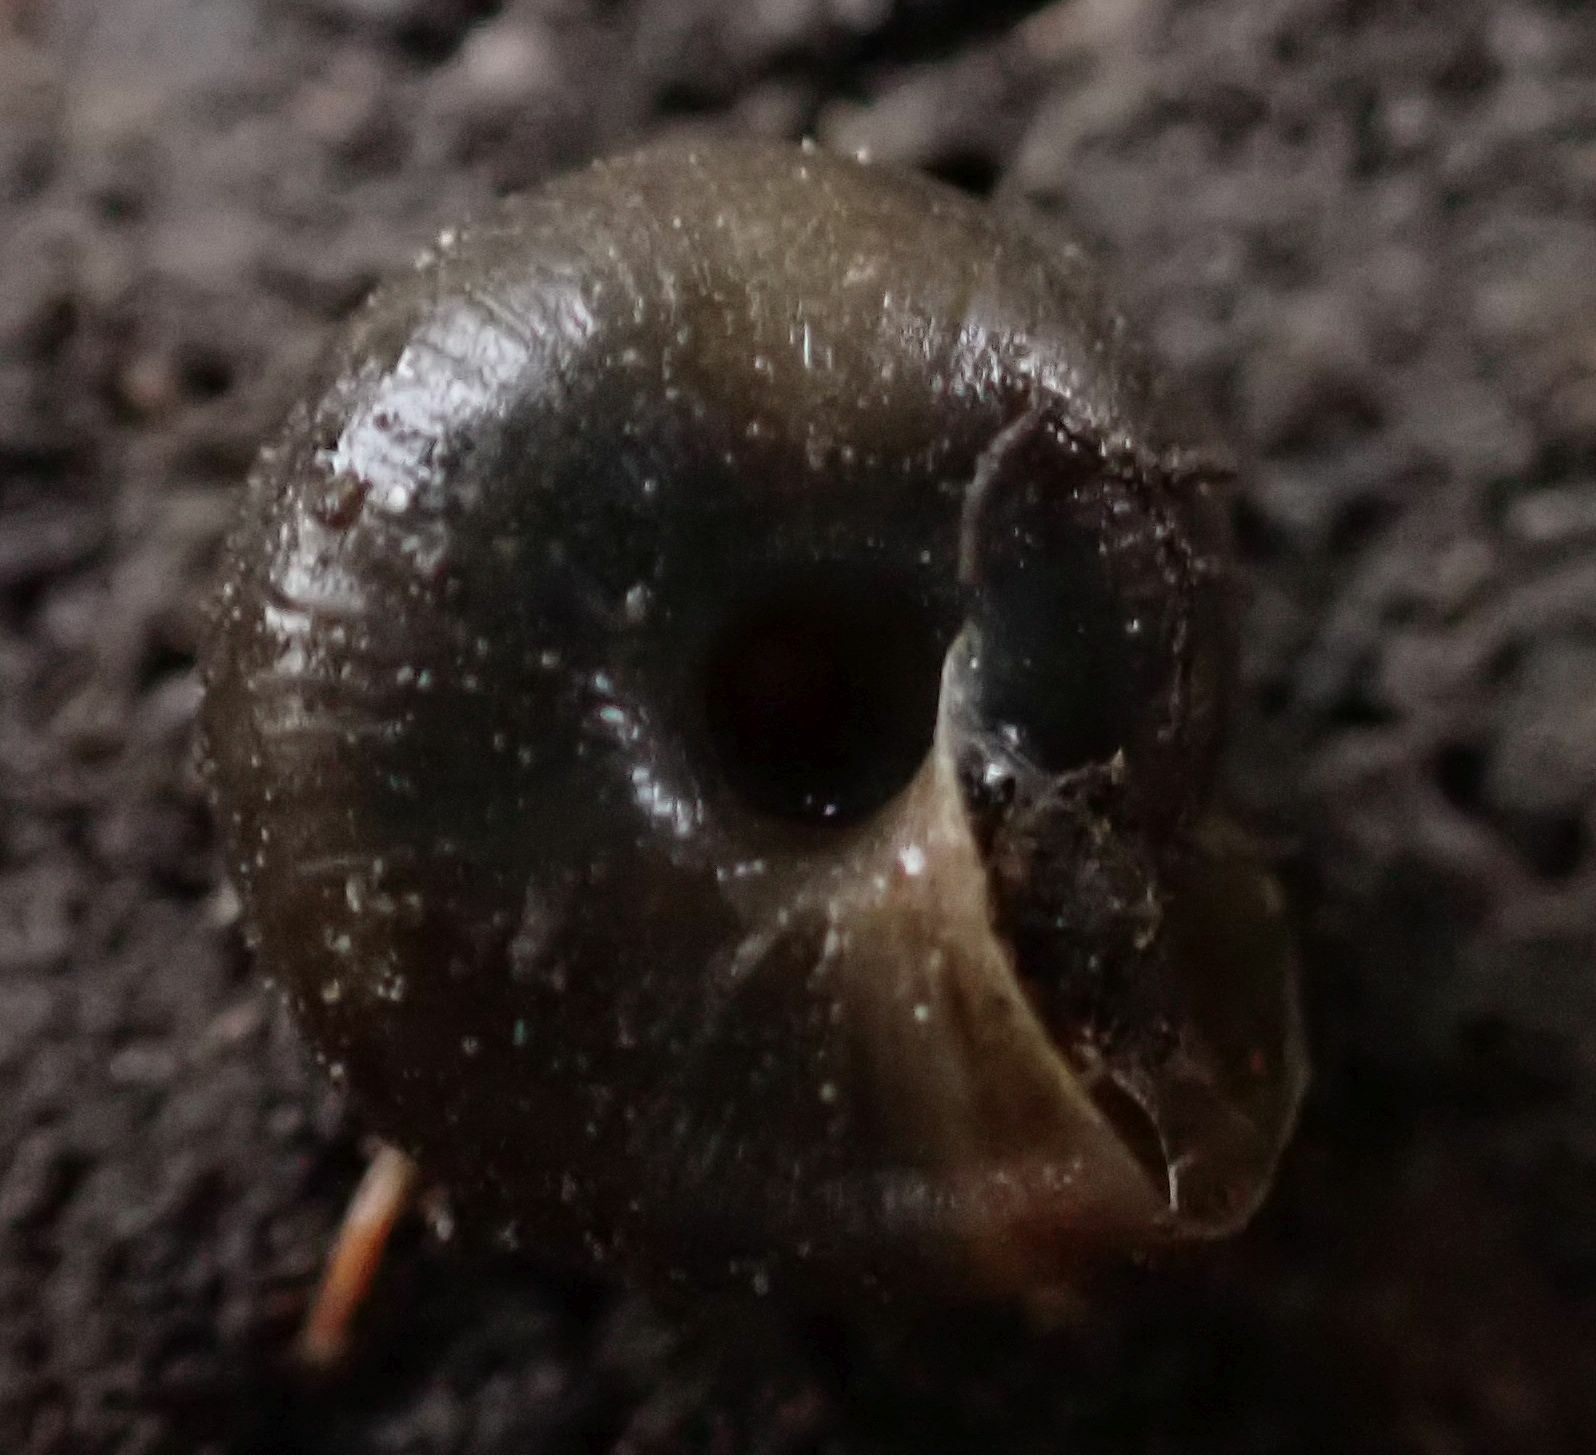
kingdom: Animalia
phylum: Mollusca
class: Gastropoda
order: Stylommatophora
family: Hygromiidae
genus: Trochulus
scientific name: Trochulus striolatus
